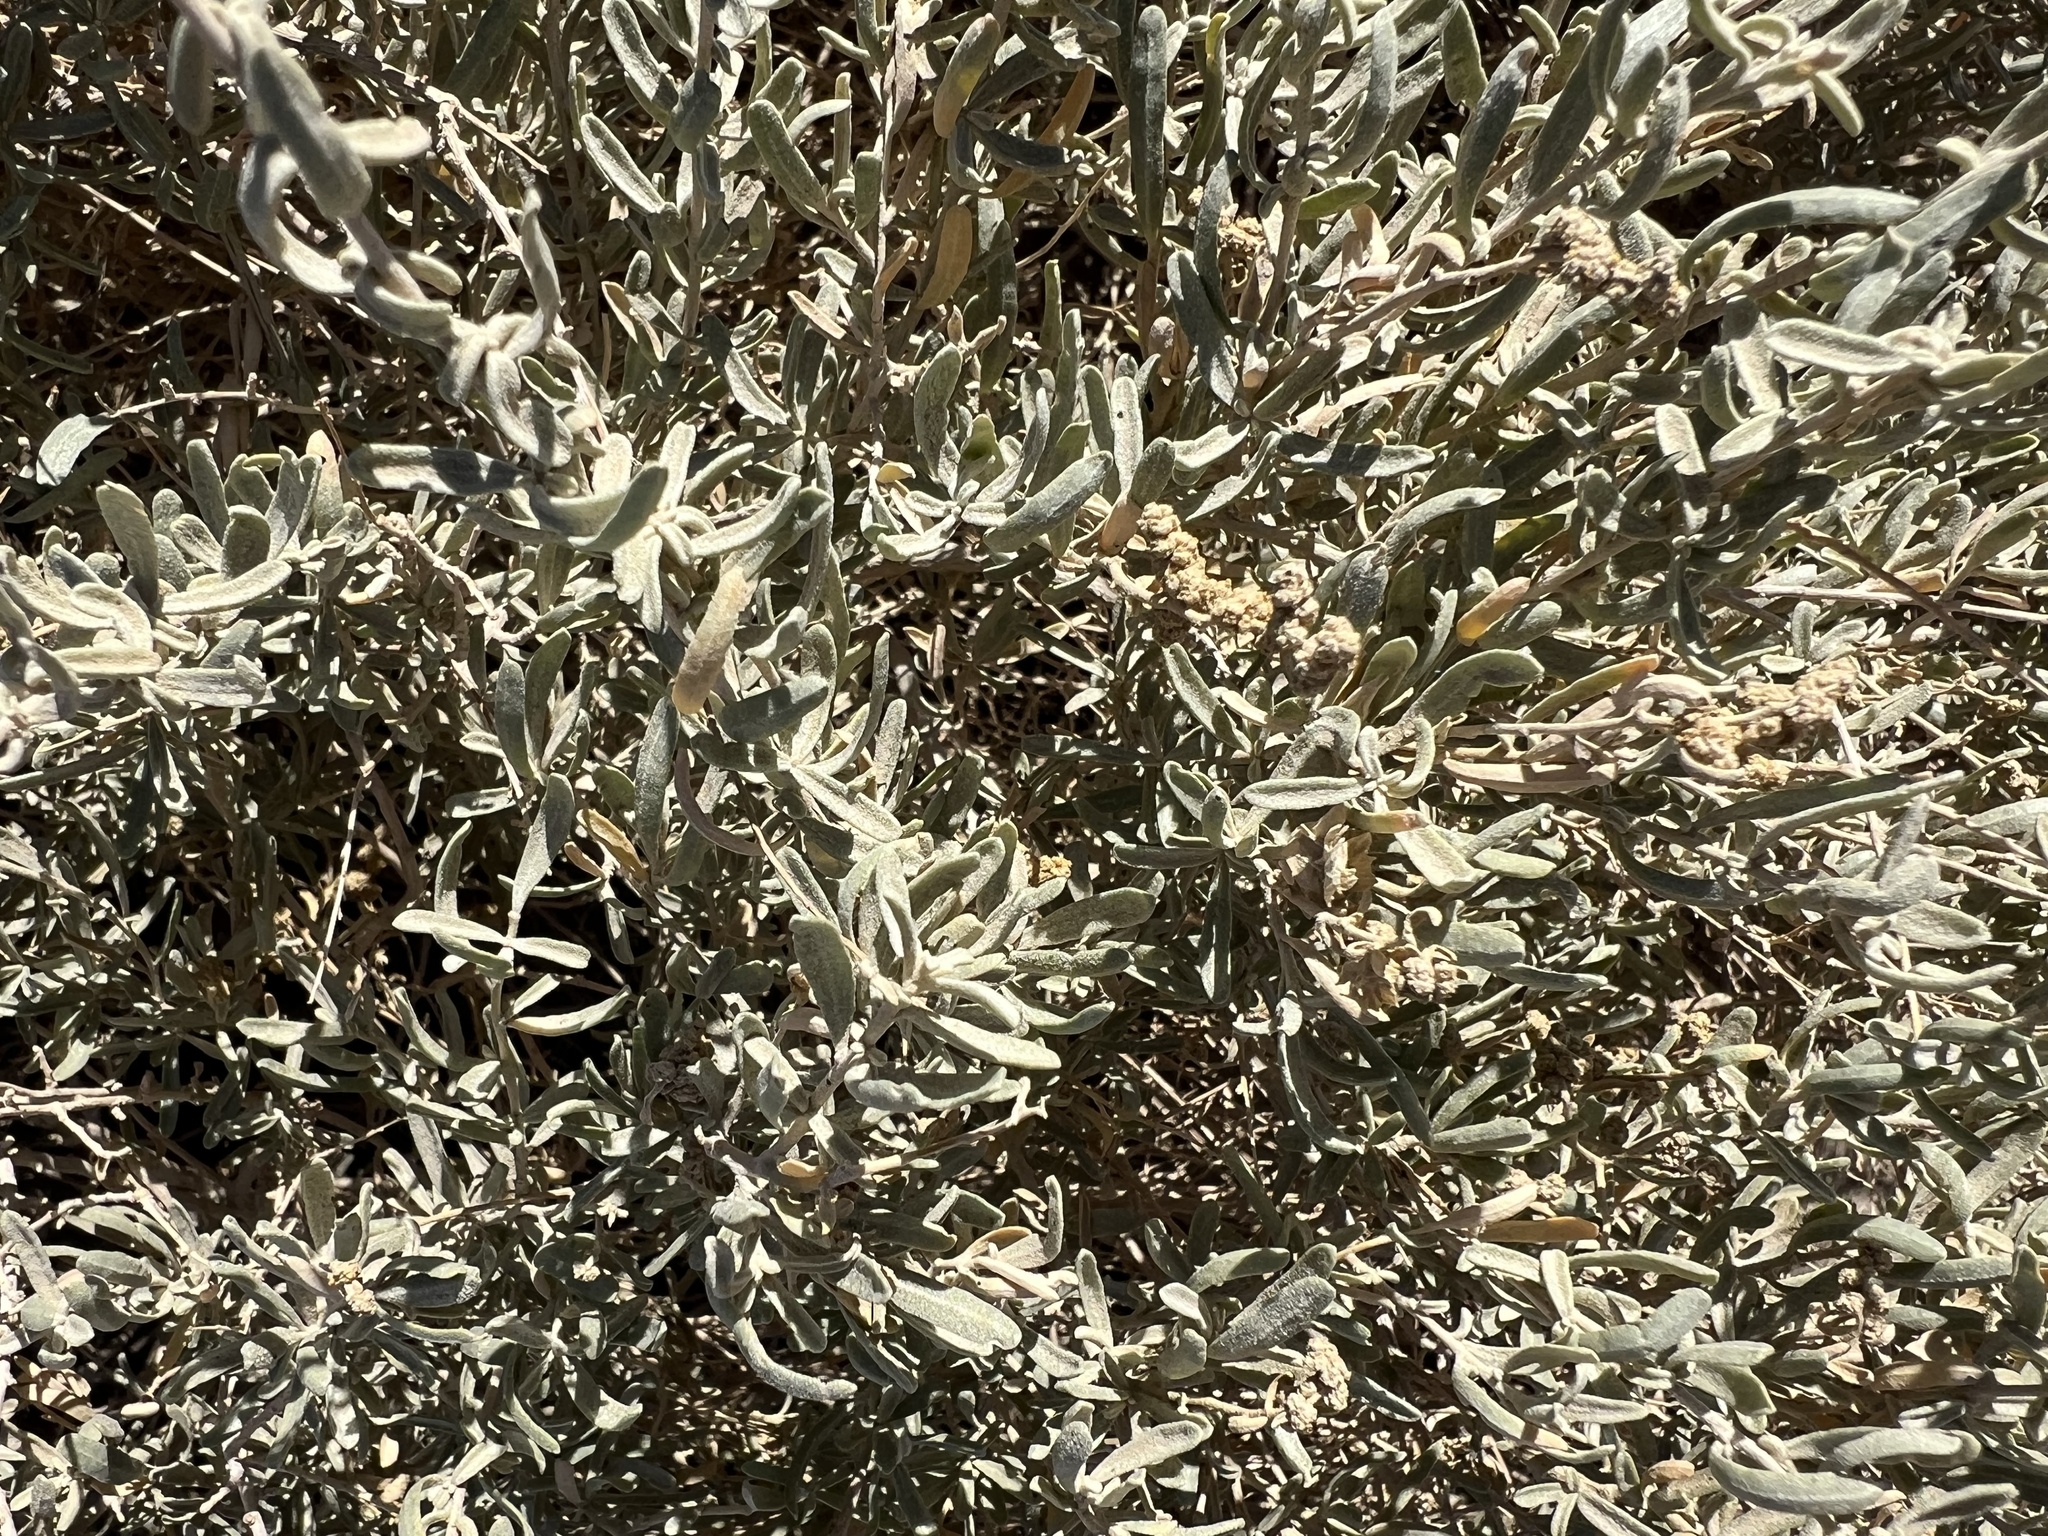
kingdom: Plantae
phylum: Tracheophyta
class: Magnoliopsida
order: Caryophyllales
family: Amaranthaceae
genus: Atriplex
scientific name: Atriplex canescens
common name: Four-wing saltbush
